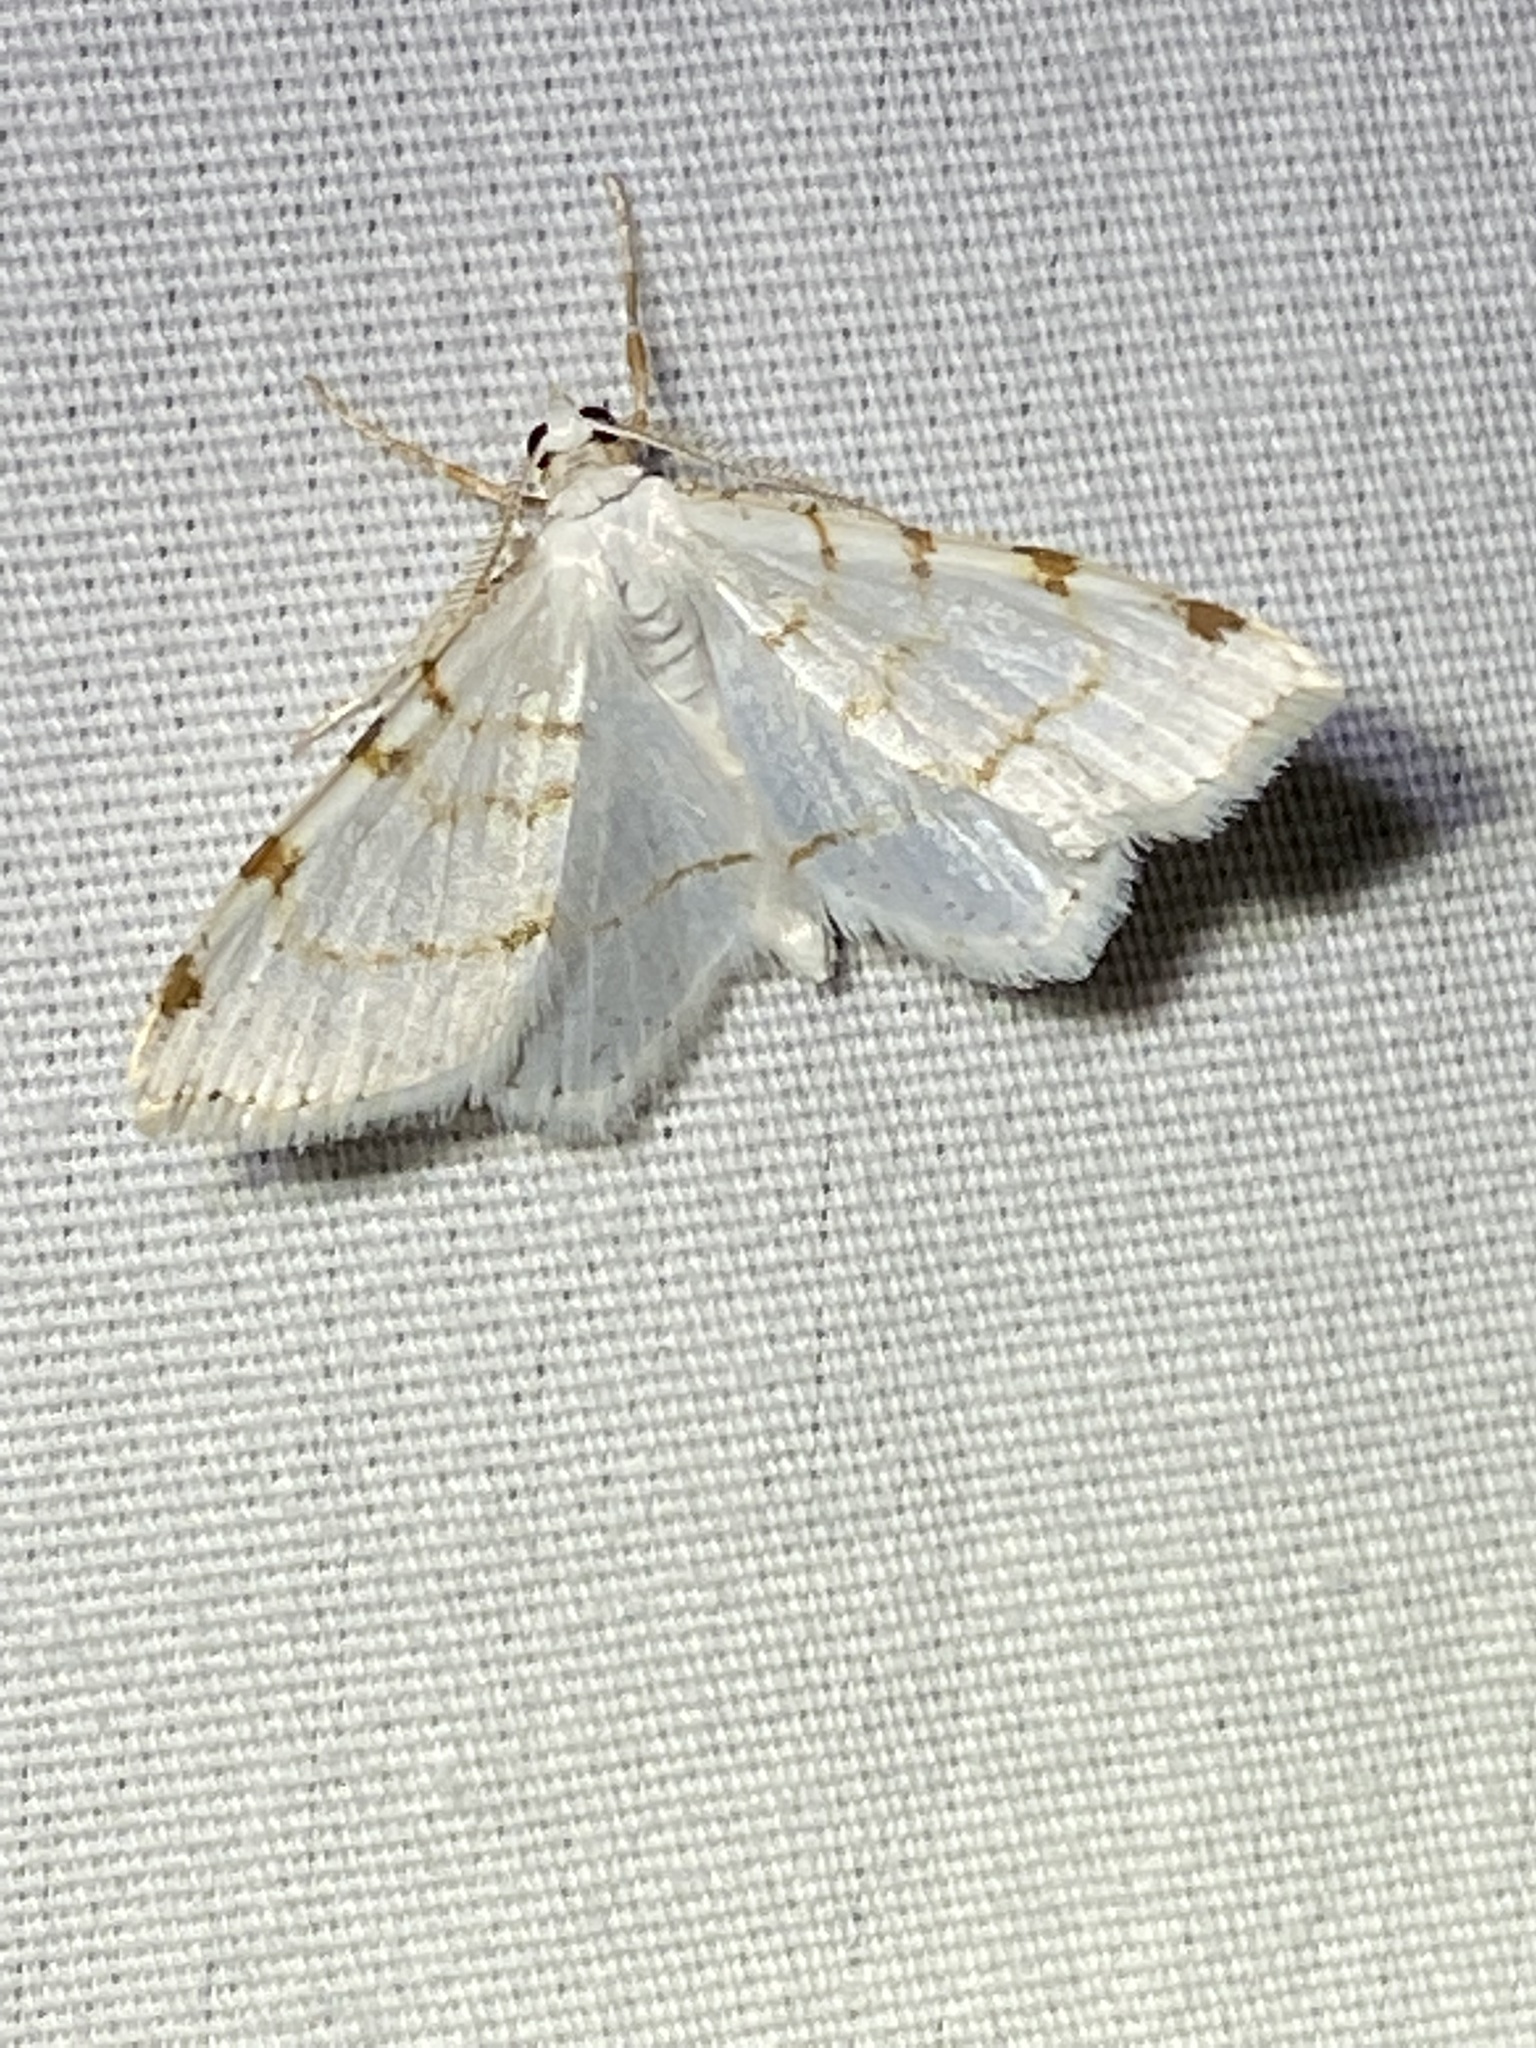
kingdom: Animalia
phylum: Arthropoda
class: Insecta
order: Lepidoptera
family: Geometridae
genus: Macaria
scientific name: Macaria pustularia
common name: Lesser maple spanworm moth
